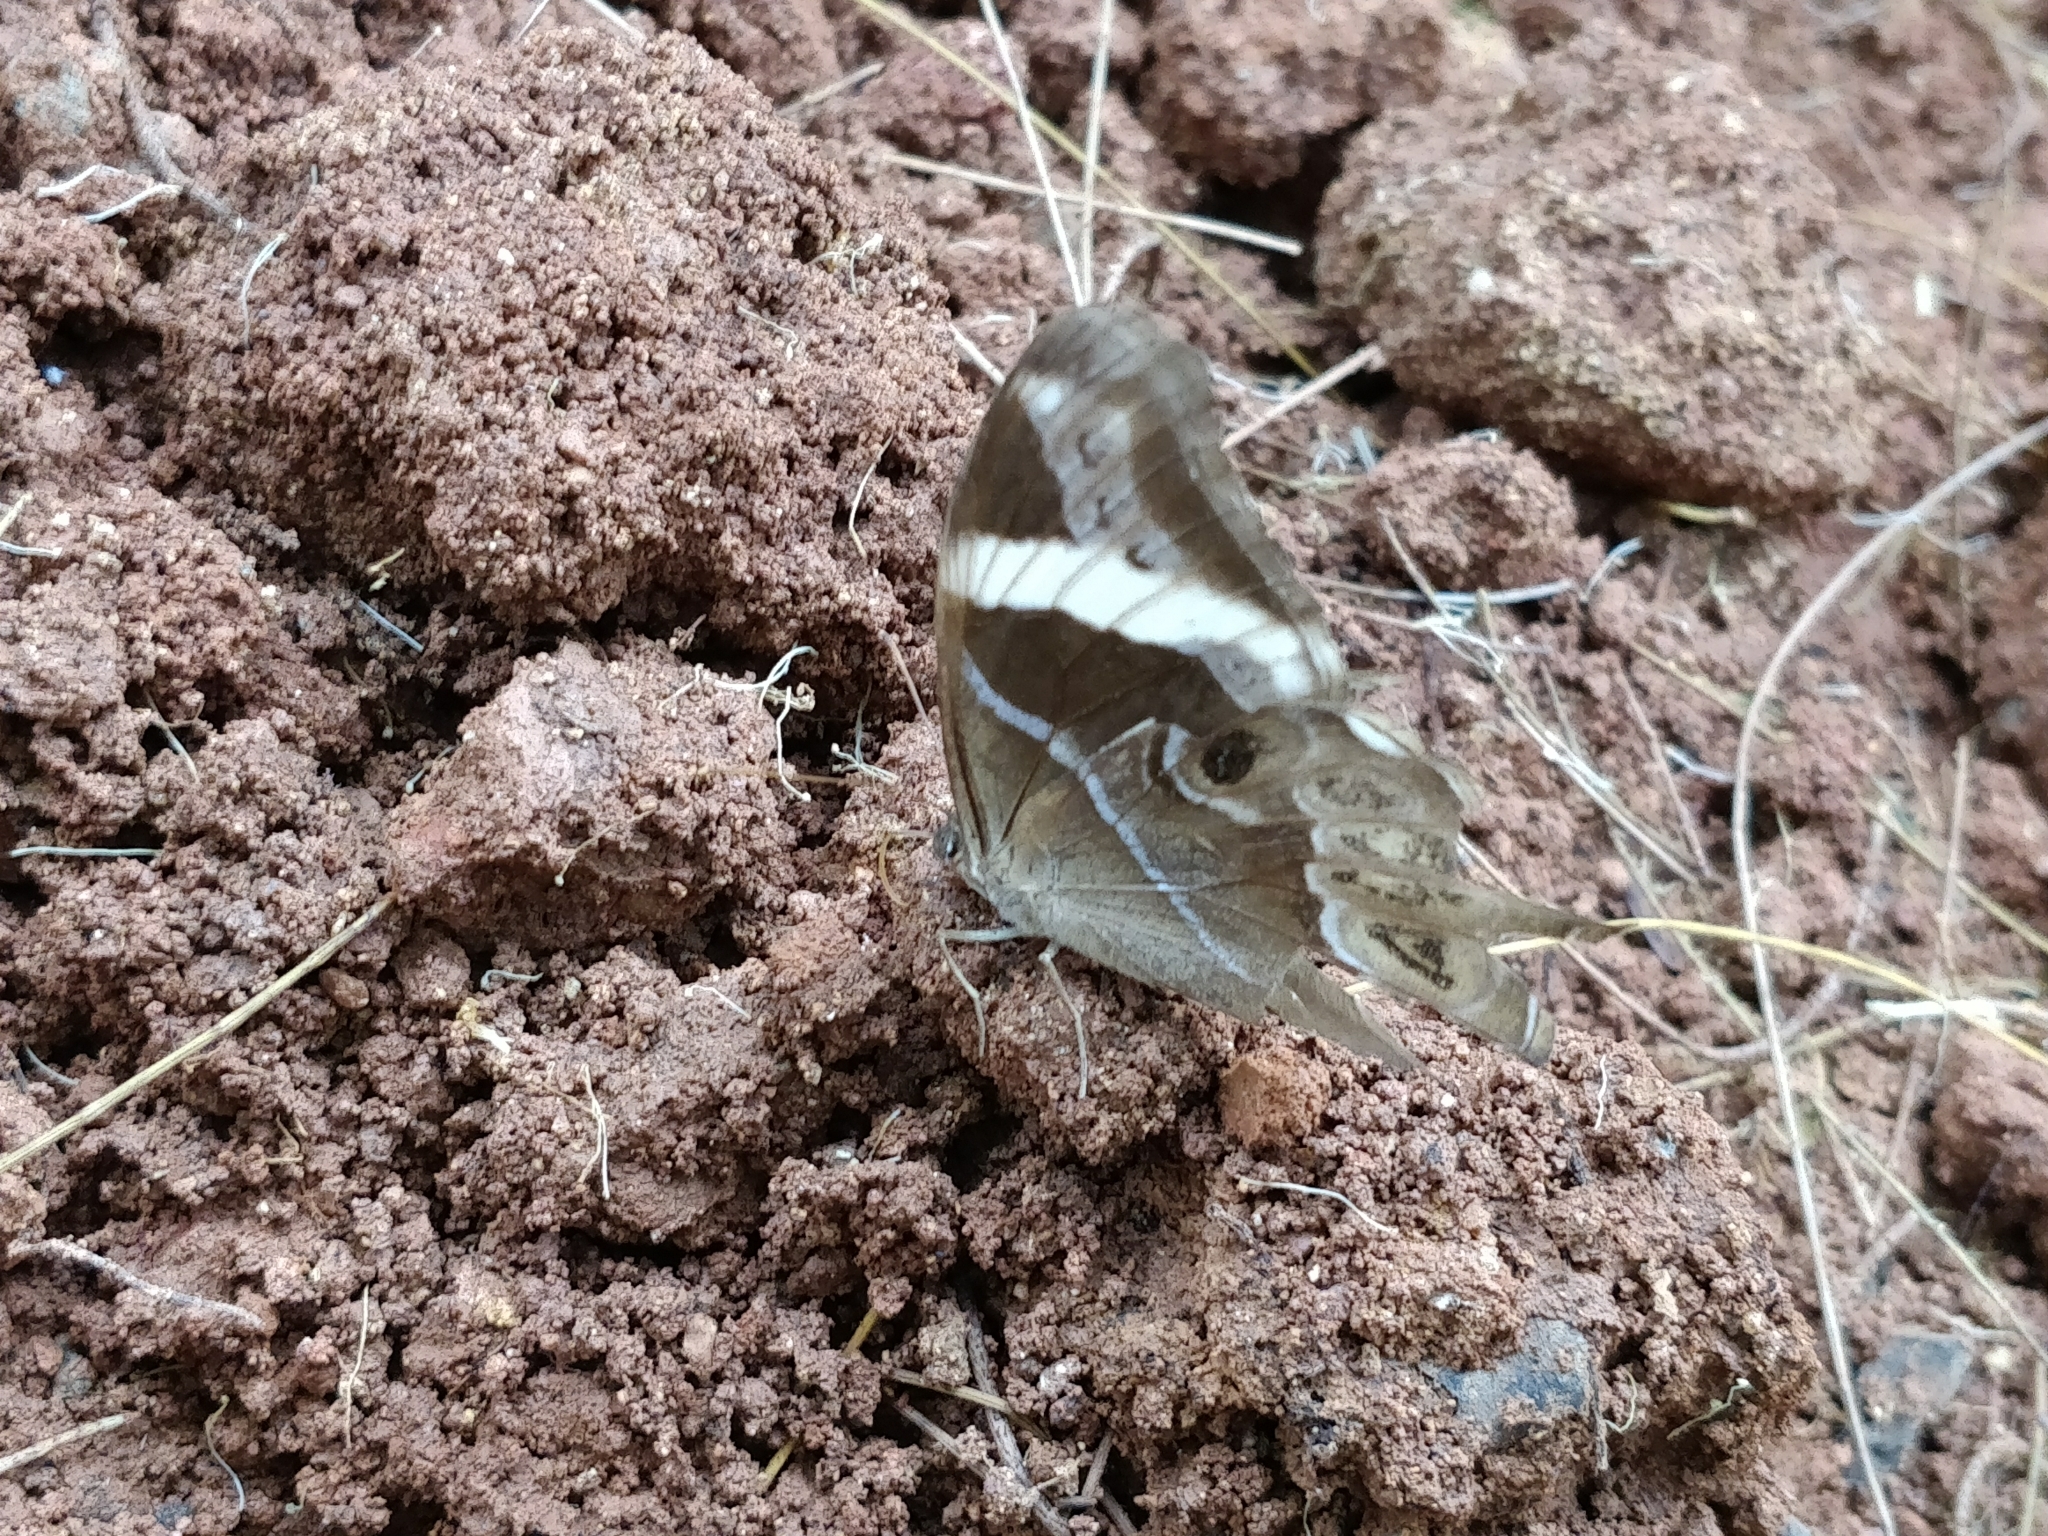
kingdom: Animalia
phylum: Arthropoda
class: Insecta
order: Lepidoptera
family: Nymphalidae
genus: Lethe
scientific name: Lethe europa
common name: Bamboo treebrown
